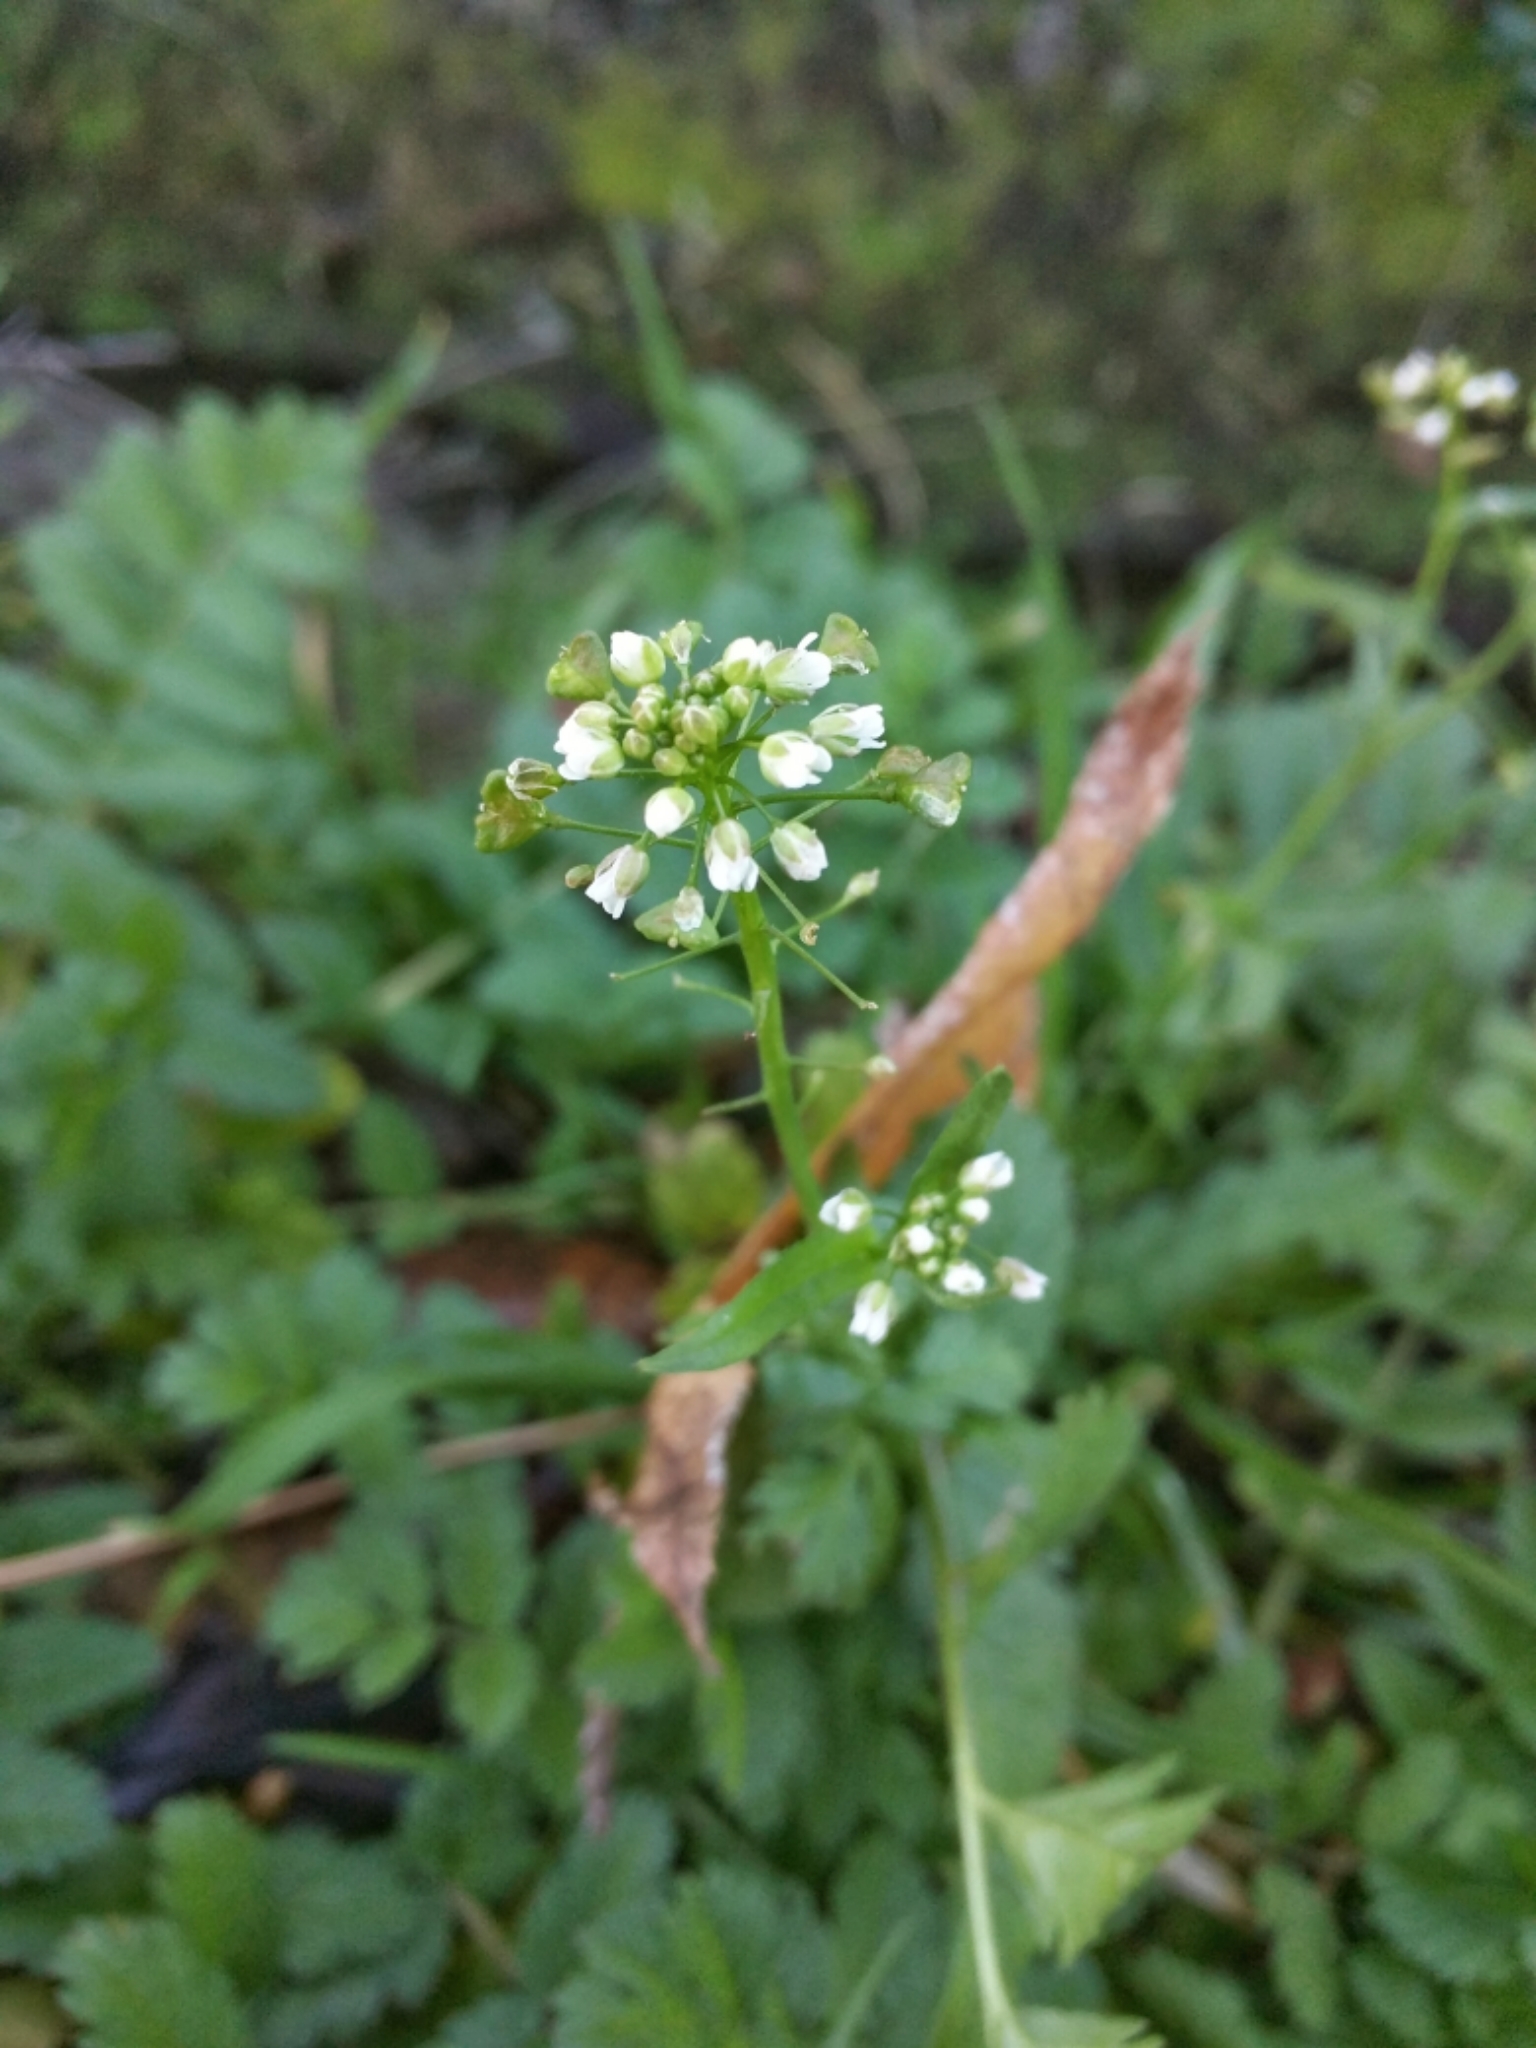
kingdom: Plantae
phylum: Tracheophyta
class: Magnoliopsida
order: Brassicales
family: Brassicaceae
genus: Capsella
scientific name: Capsella bursa-pastoris
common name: Shepherd's purse
